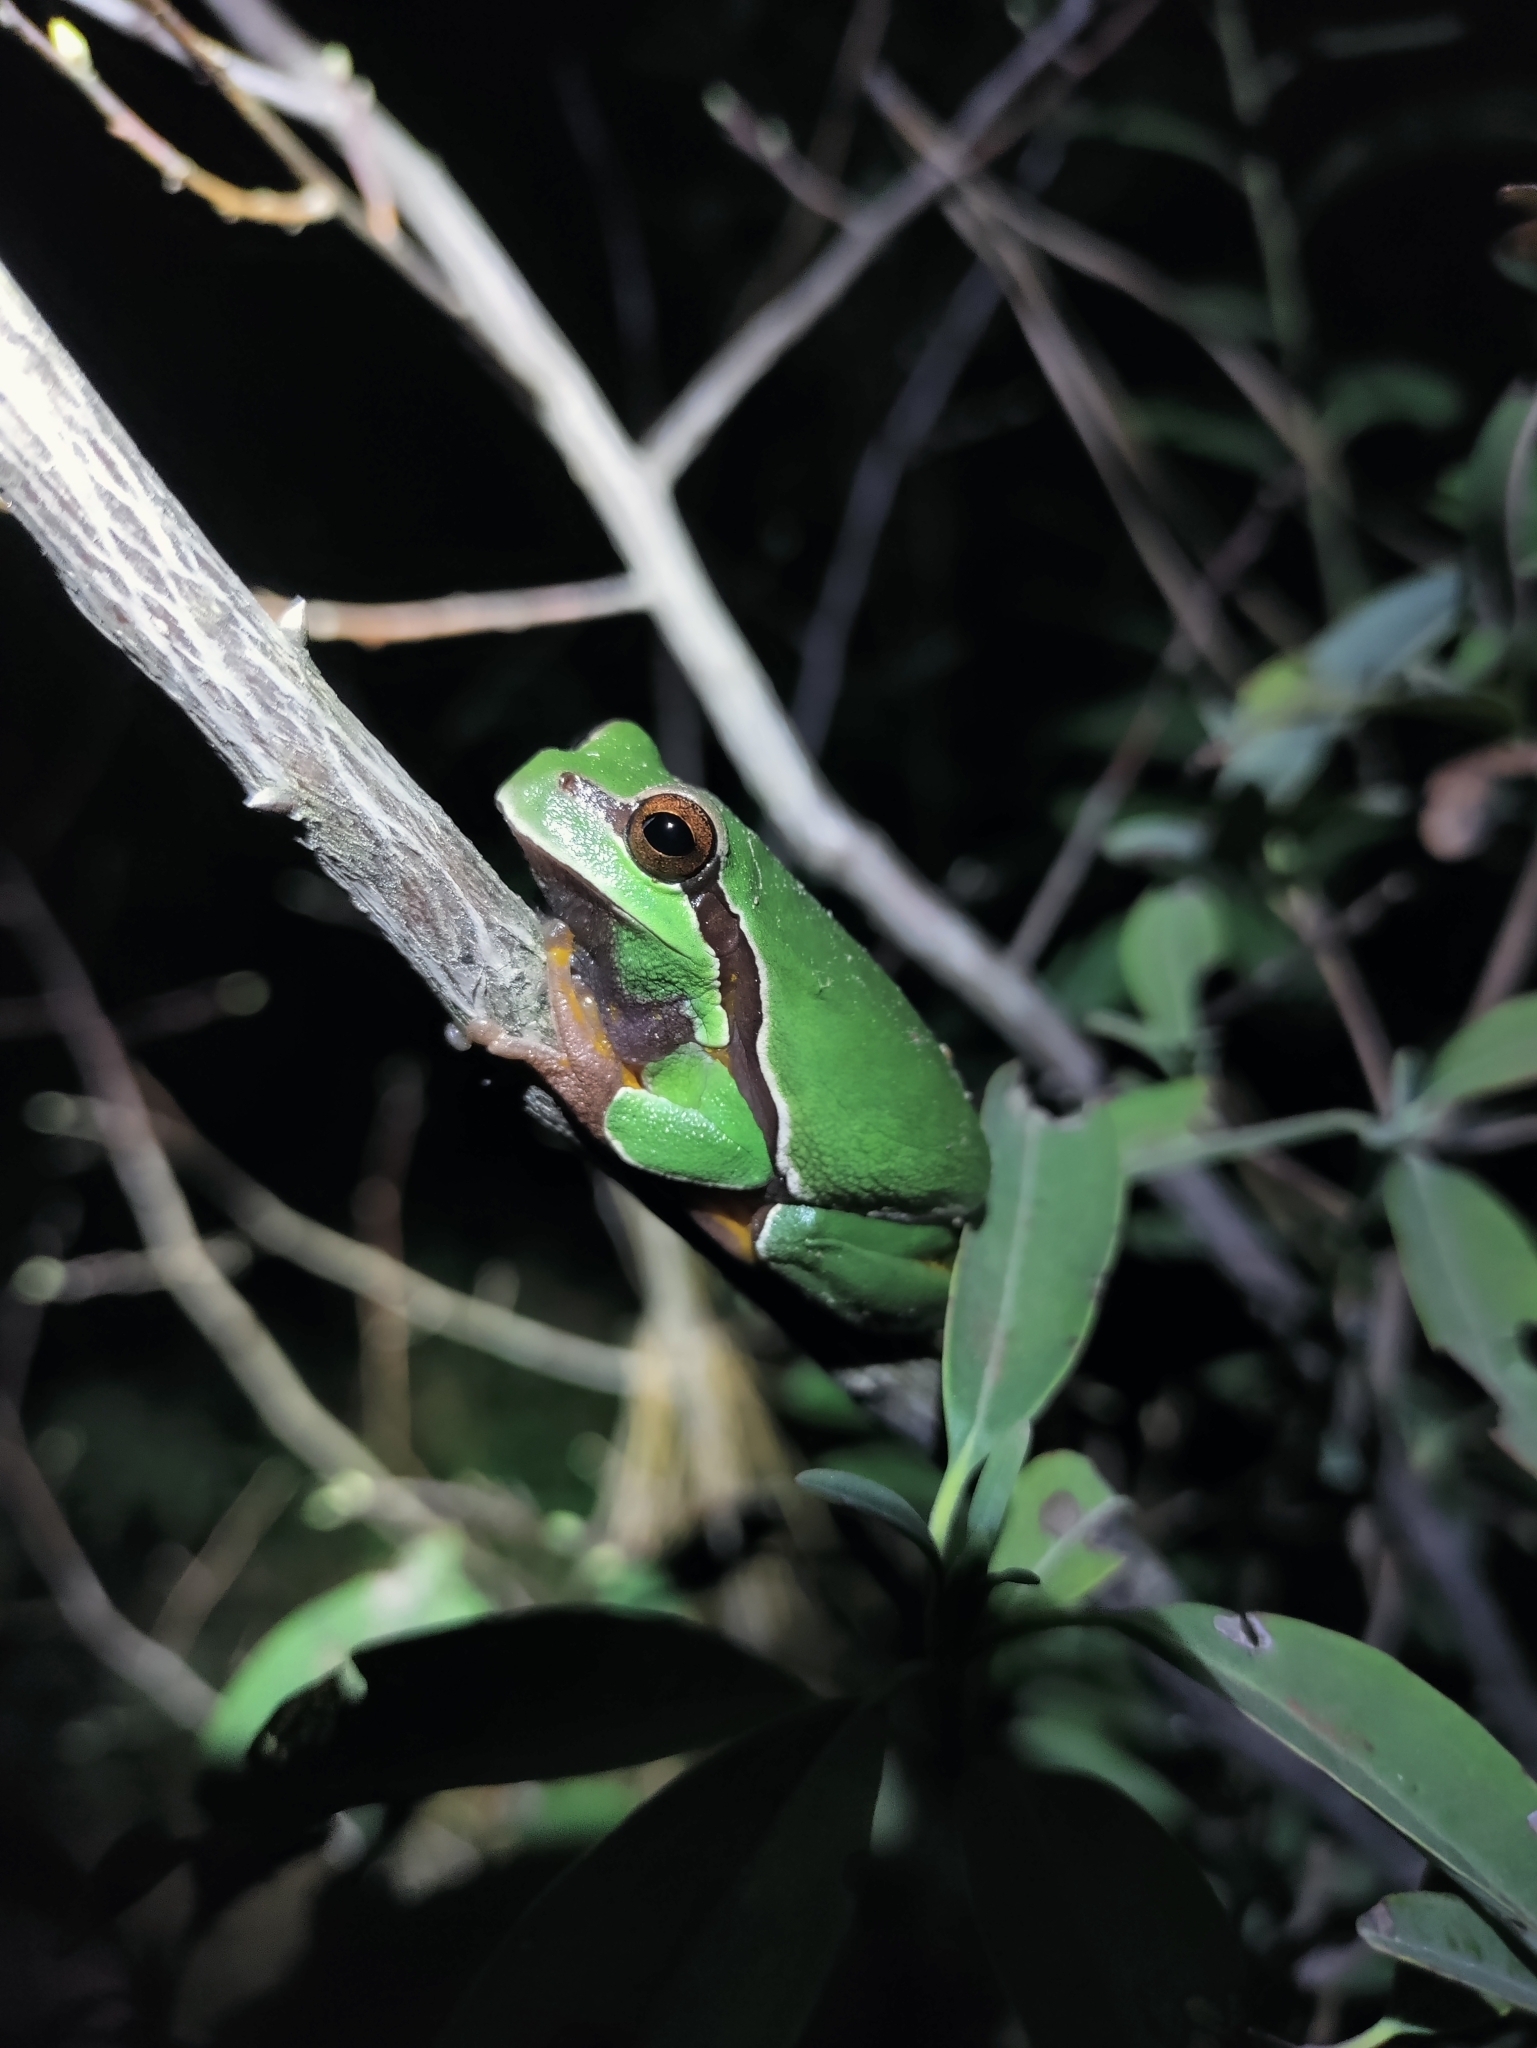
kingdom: Animalia
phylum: Chordata
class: Amphibia
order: Anura
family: Hylidae
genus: Dryophytes
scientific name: Dryophytes andersonii
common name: Pine barrens treefrog
